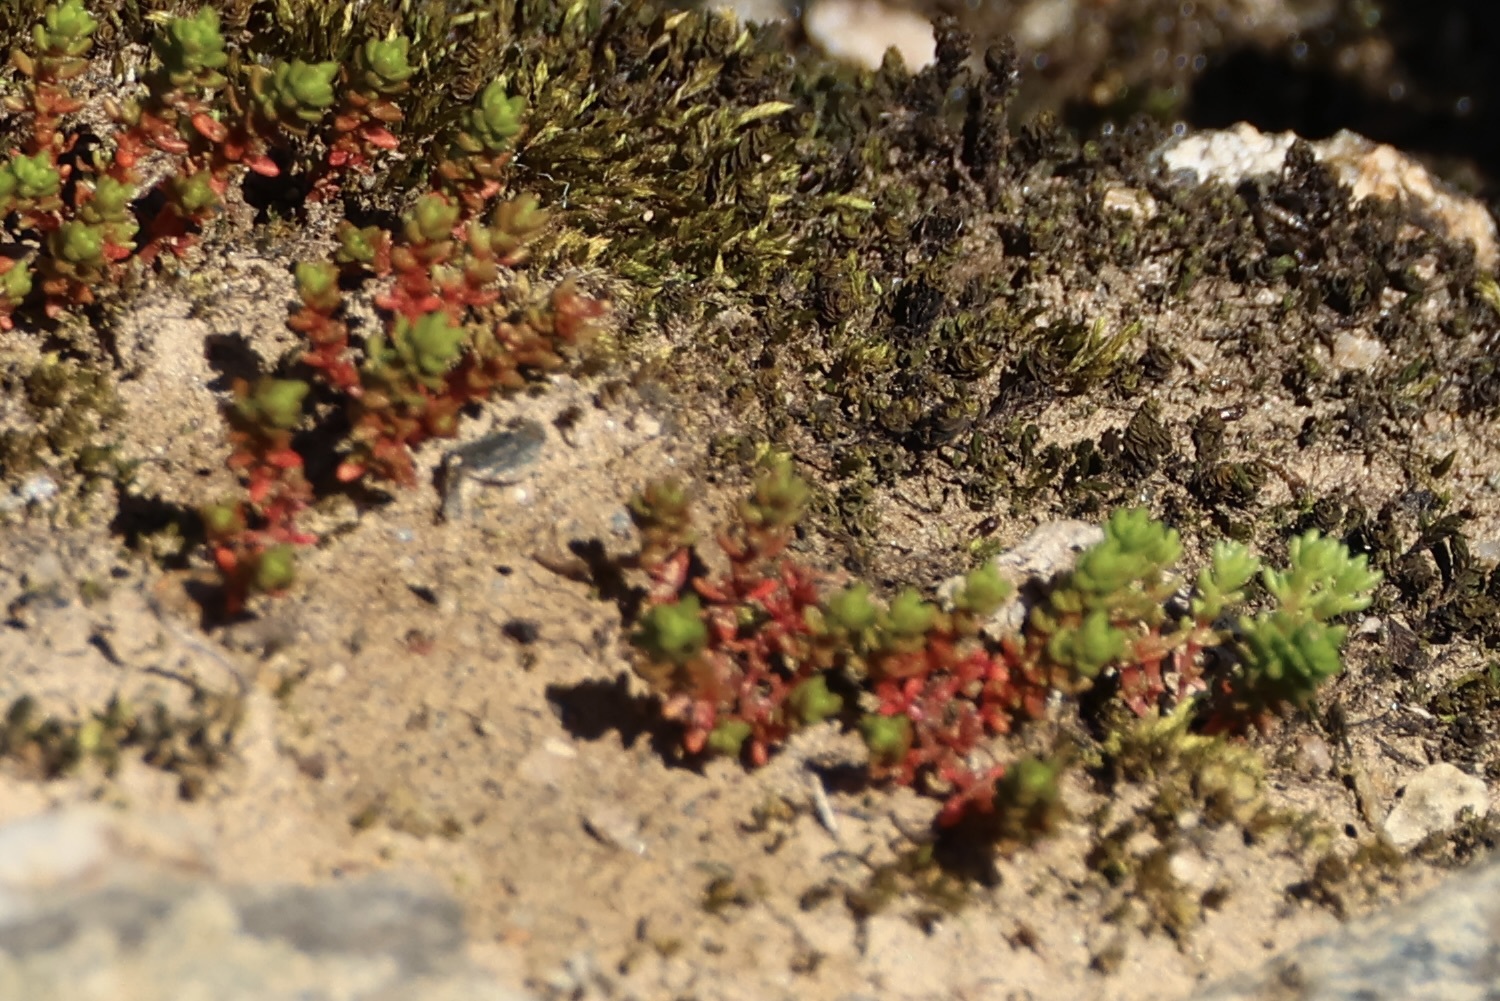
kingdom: Plantae
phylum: Tracheophyta
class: Magnoliopsida
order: Saxifragales
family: Crassulaceae
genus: Crassula
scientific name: Crassula tillaea
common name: Mossy stonecrop
